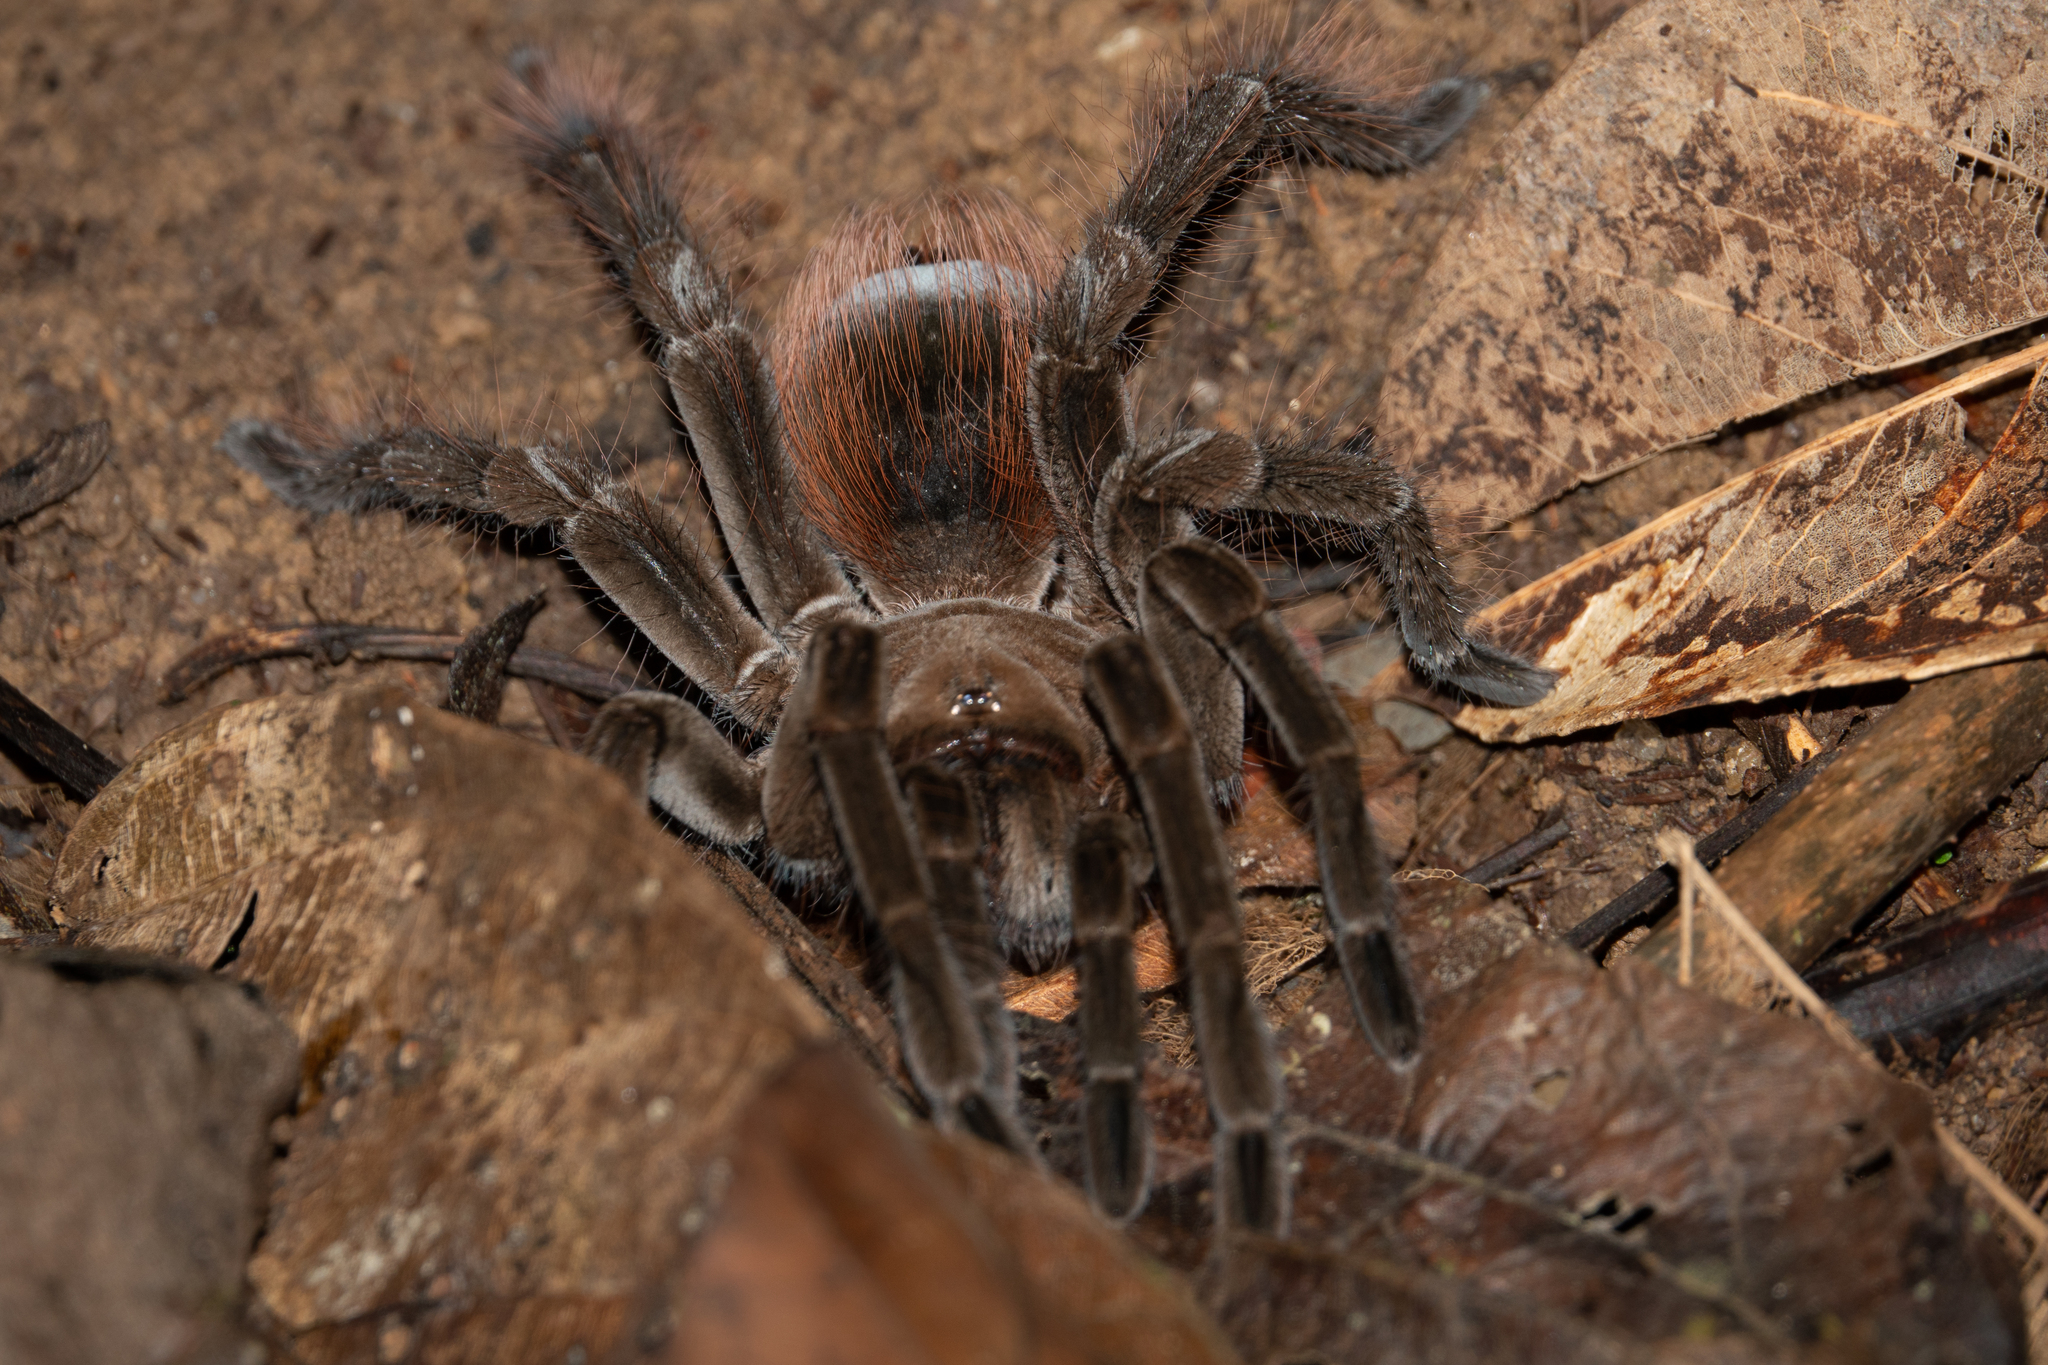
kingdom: Animalia
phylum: Arthropoda
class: Arachnida
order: Araneae
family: Theraphosidae
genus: Megaphobema
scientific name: Megaphobema velvetosoma
